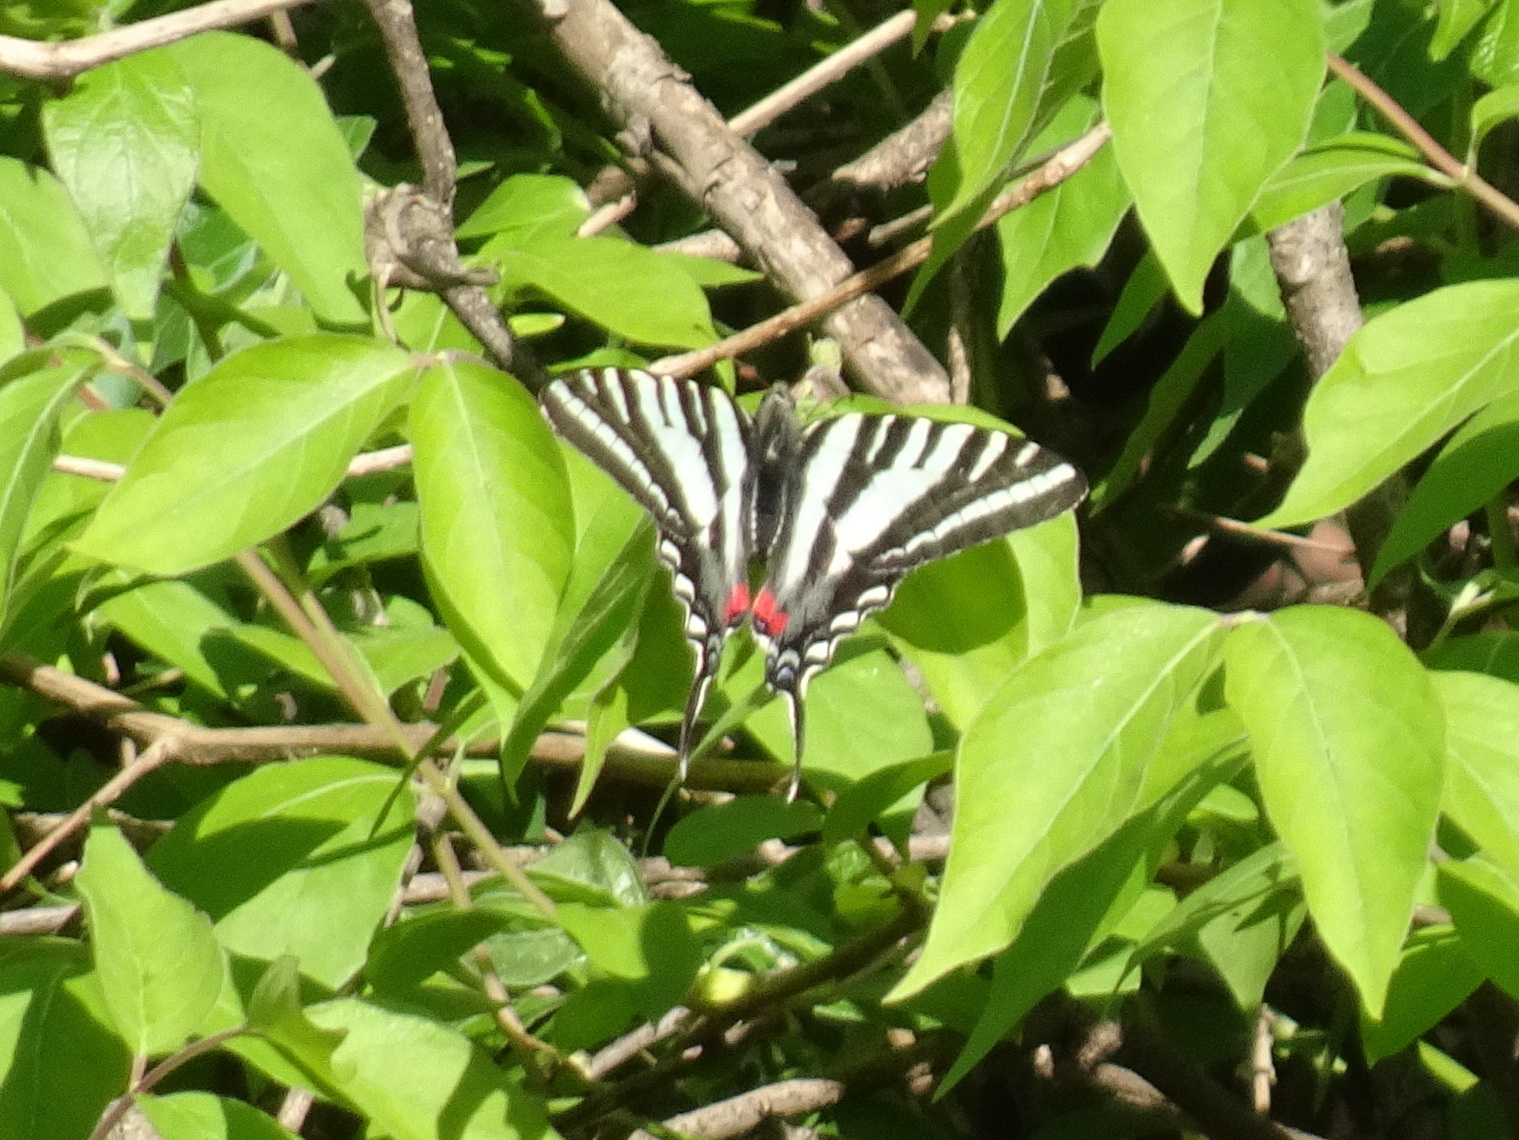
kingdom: Animalia
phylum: Arthropoda
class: Insecta
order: Lepidoptera
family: Papilionidae
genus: Protographium
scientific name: Protographium marcellus
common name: Zebra swallowtail
